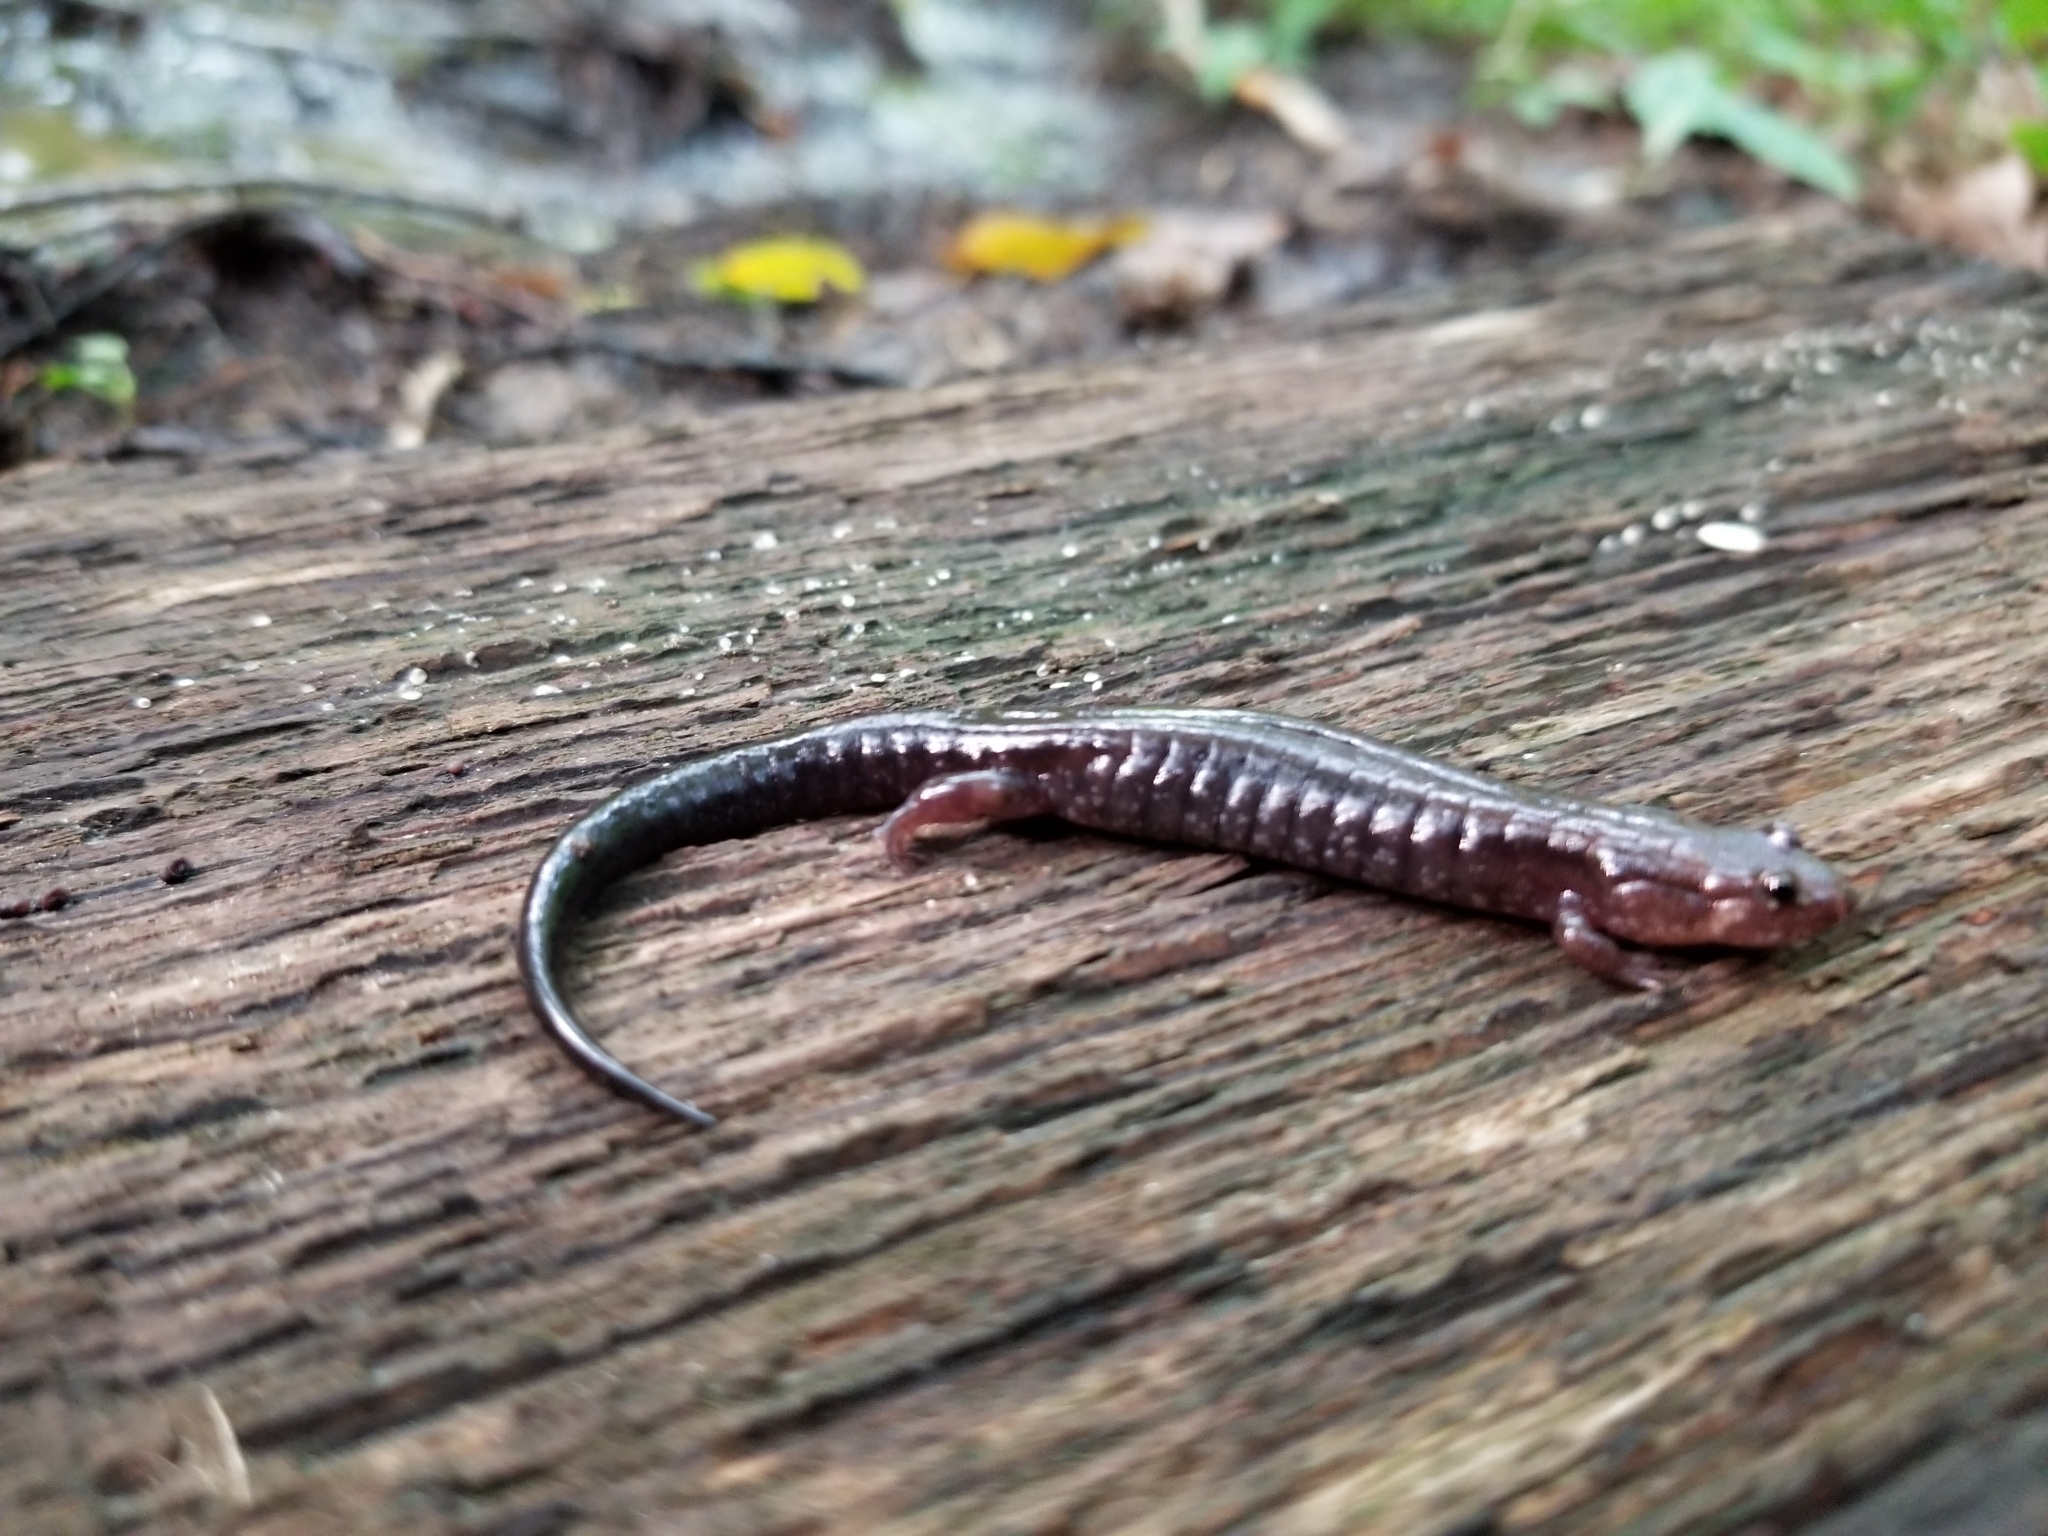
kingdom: Animalia
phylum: Chordata
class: Amphibia
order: Caudata
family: Plethodontidae
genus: Desmognathus
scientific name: Desmognathus ochrophaeus
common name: Allegheny mountain dusky salamander
